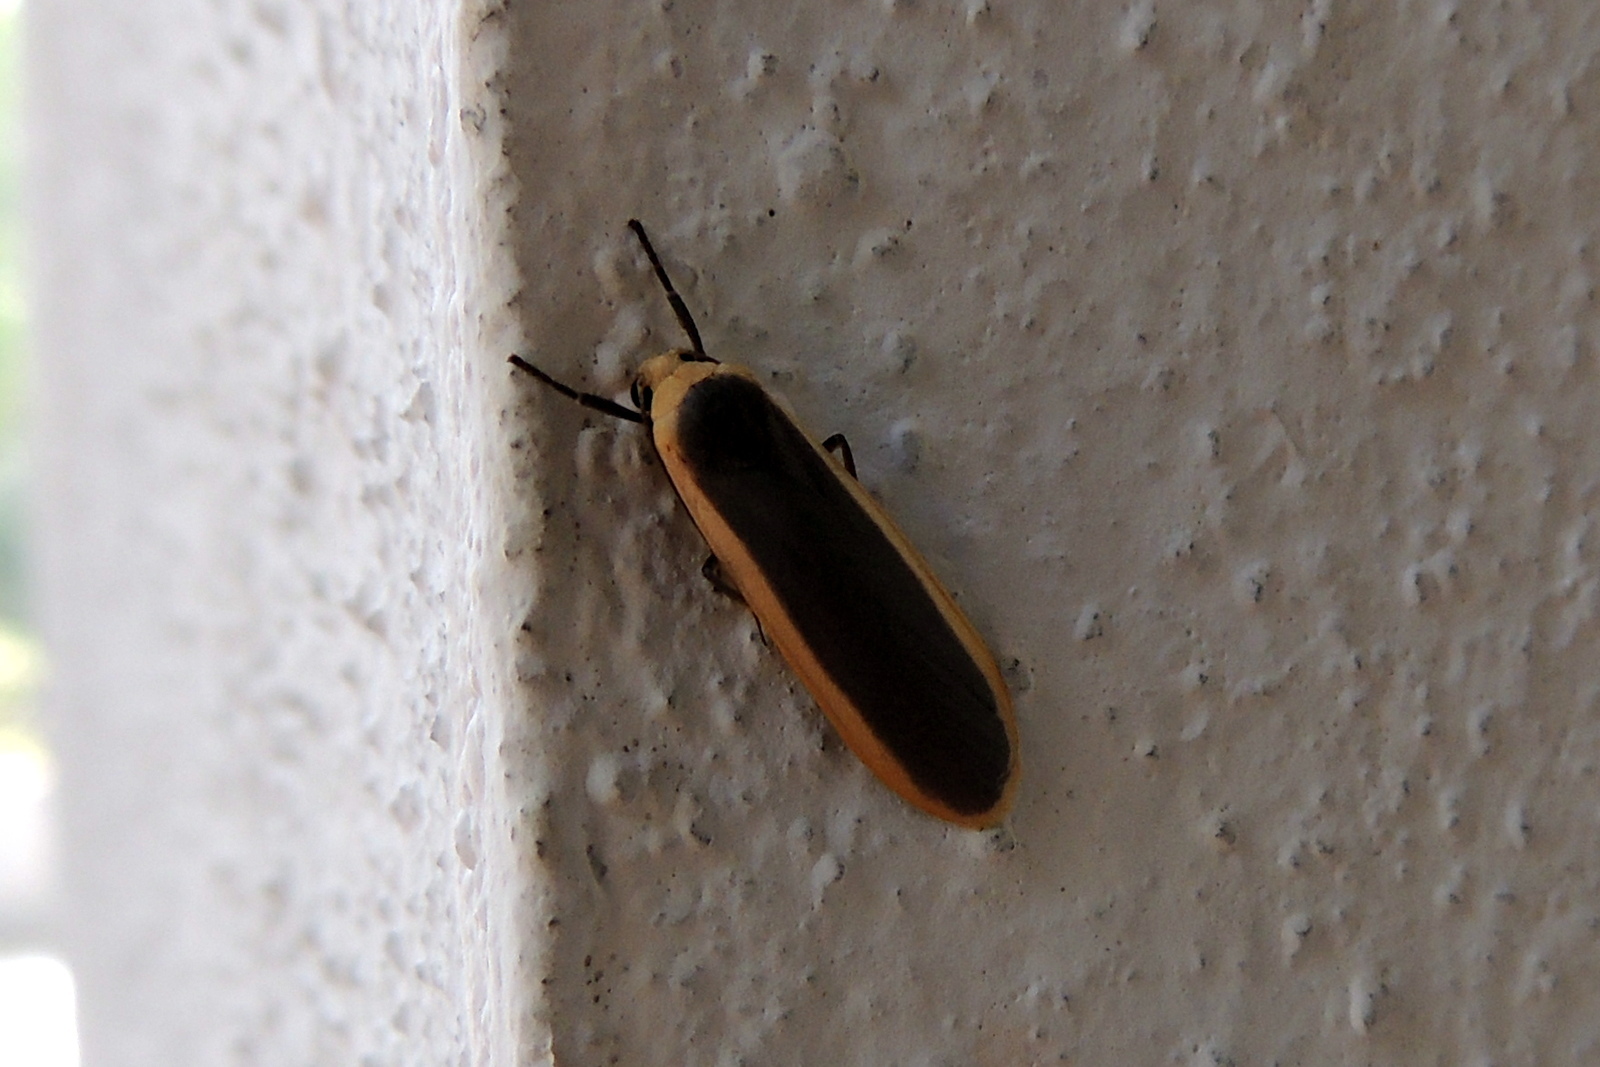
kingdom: Animalia
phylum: Arthropoda
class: Insecta
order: Lepidoptera
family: Erebidae
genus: Brunia
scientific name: Brunia antica
